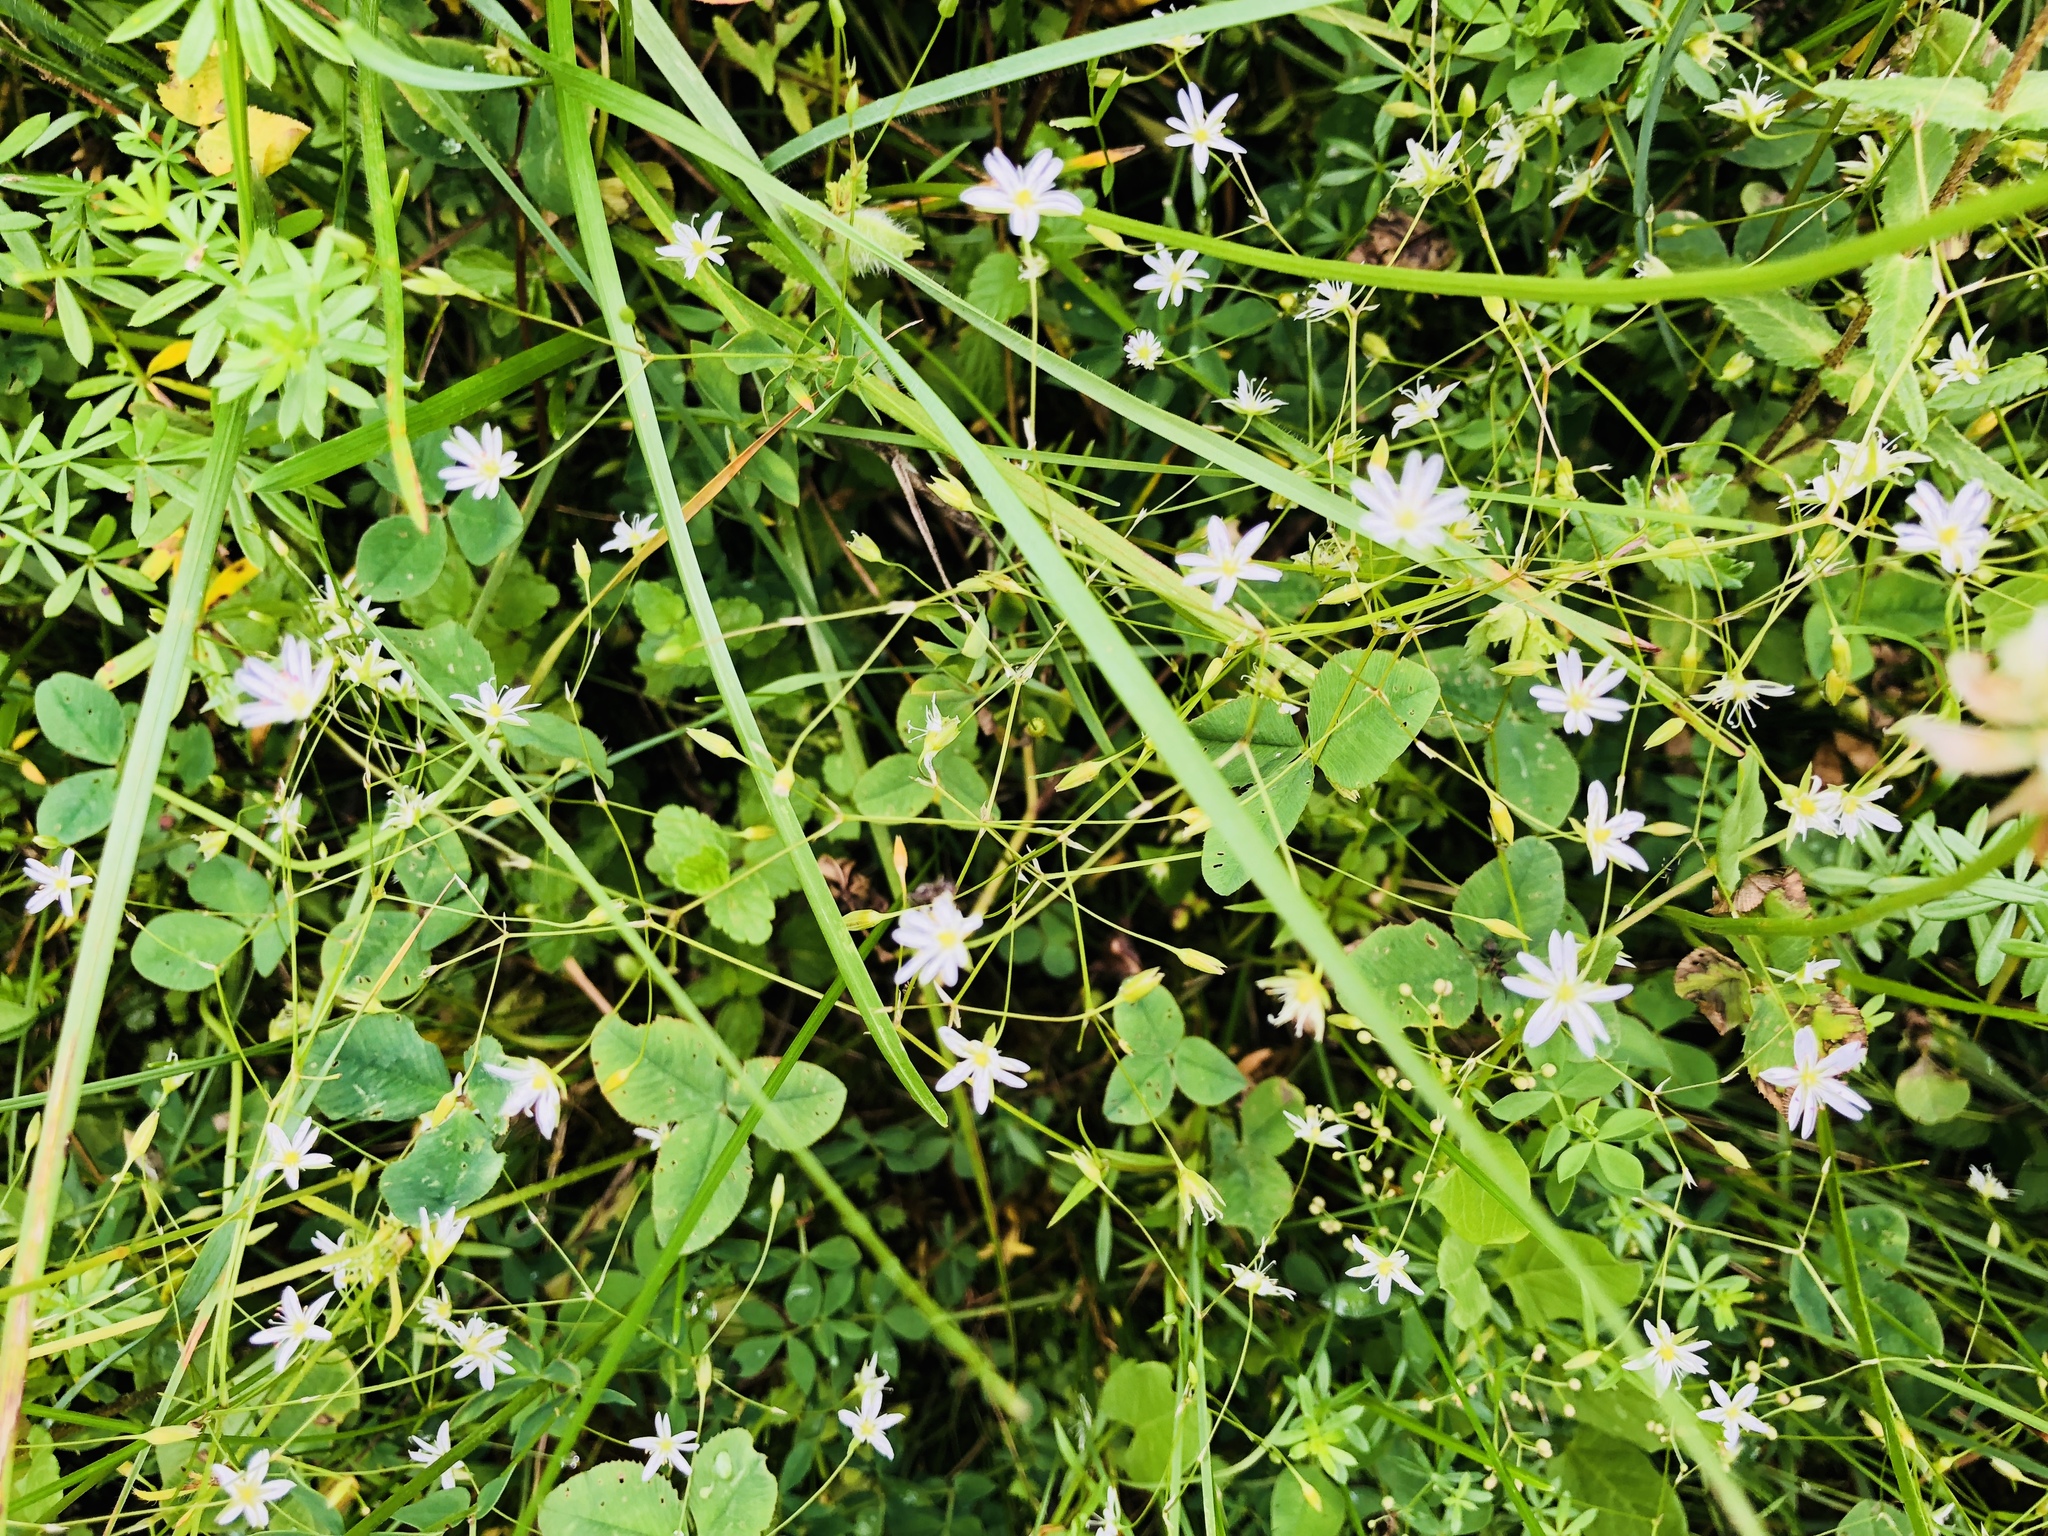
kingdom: Plantae
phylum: Tracheophyta
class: Magnoliopsida
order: Caryophyllales
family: Caryophyllaceae
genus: Stellaria
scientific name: Stellaria graminea
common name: Grass-like starwort
